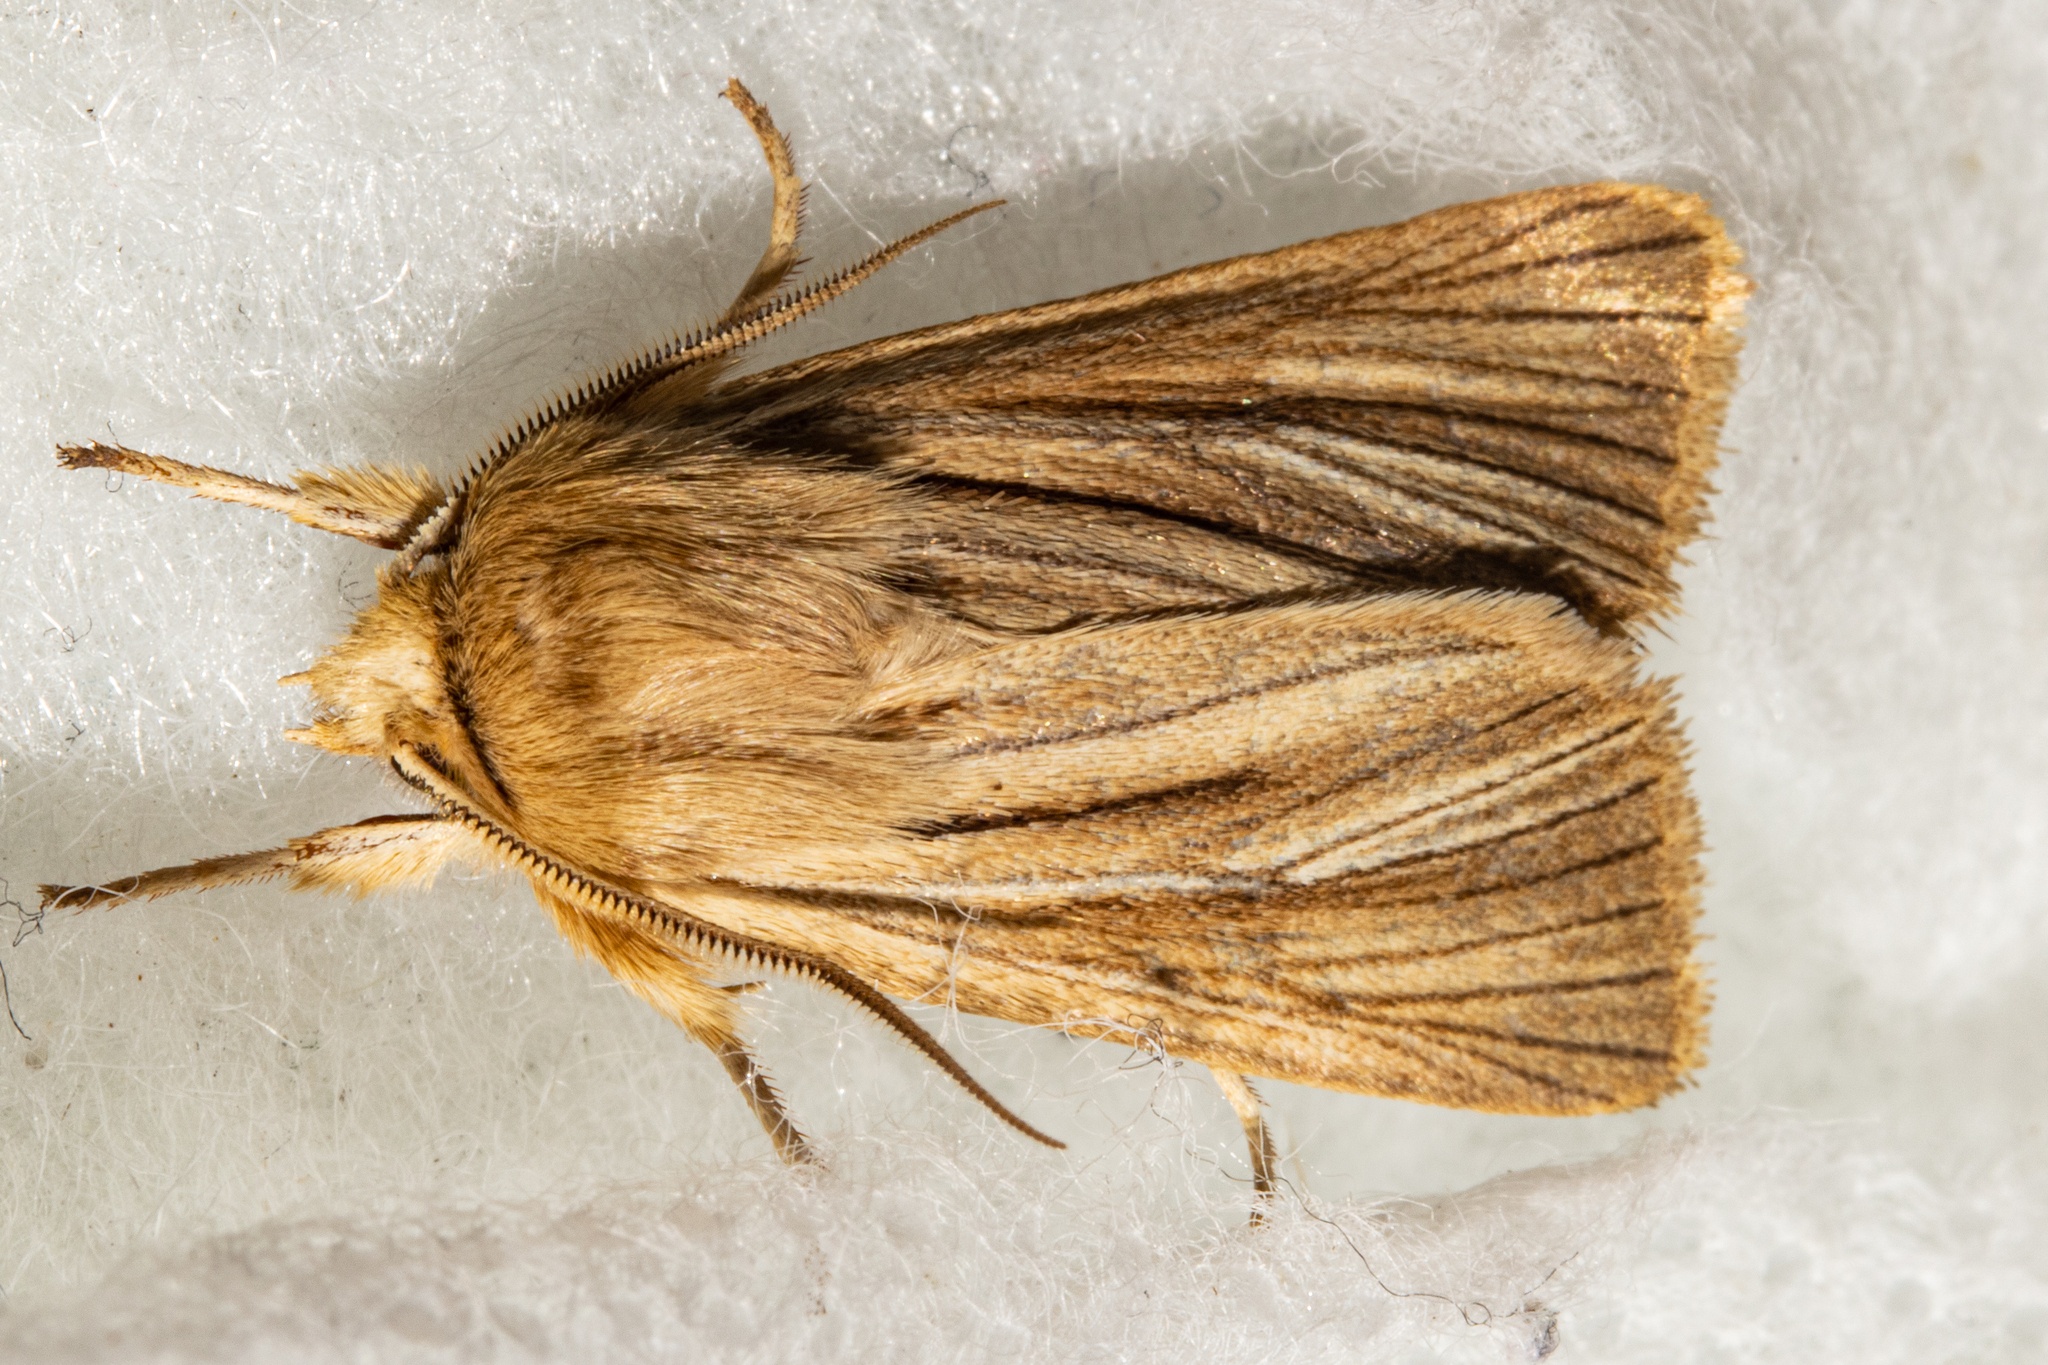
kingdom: Animalia
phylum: Arthropoda
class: Insecta
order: Lepidoptera
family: Noctuidae
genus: Ichneutica
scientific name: Ichneutica
